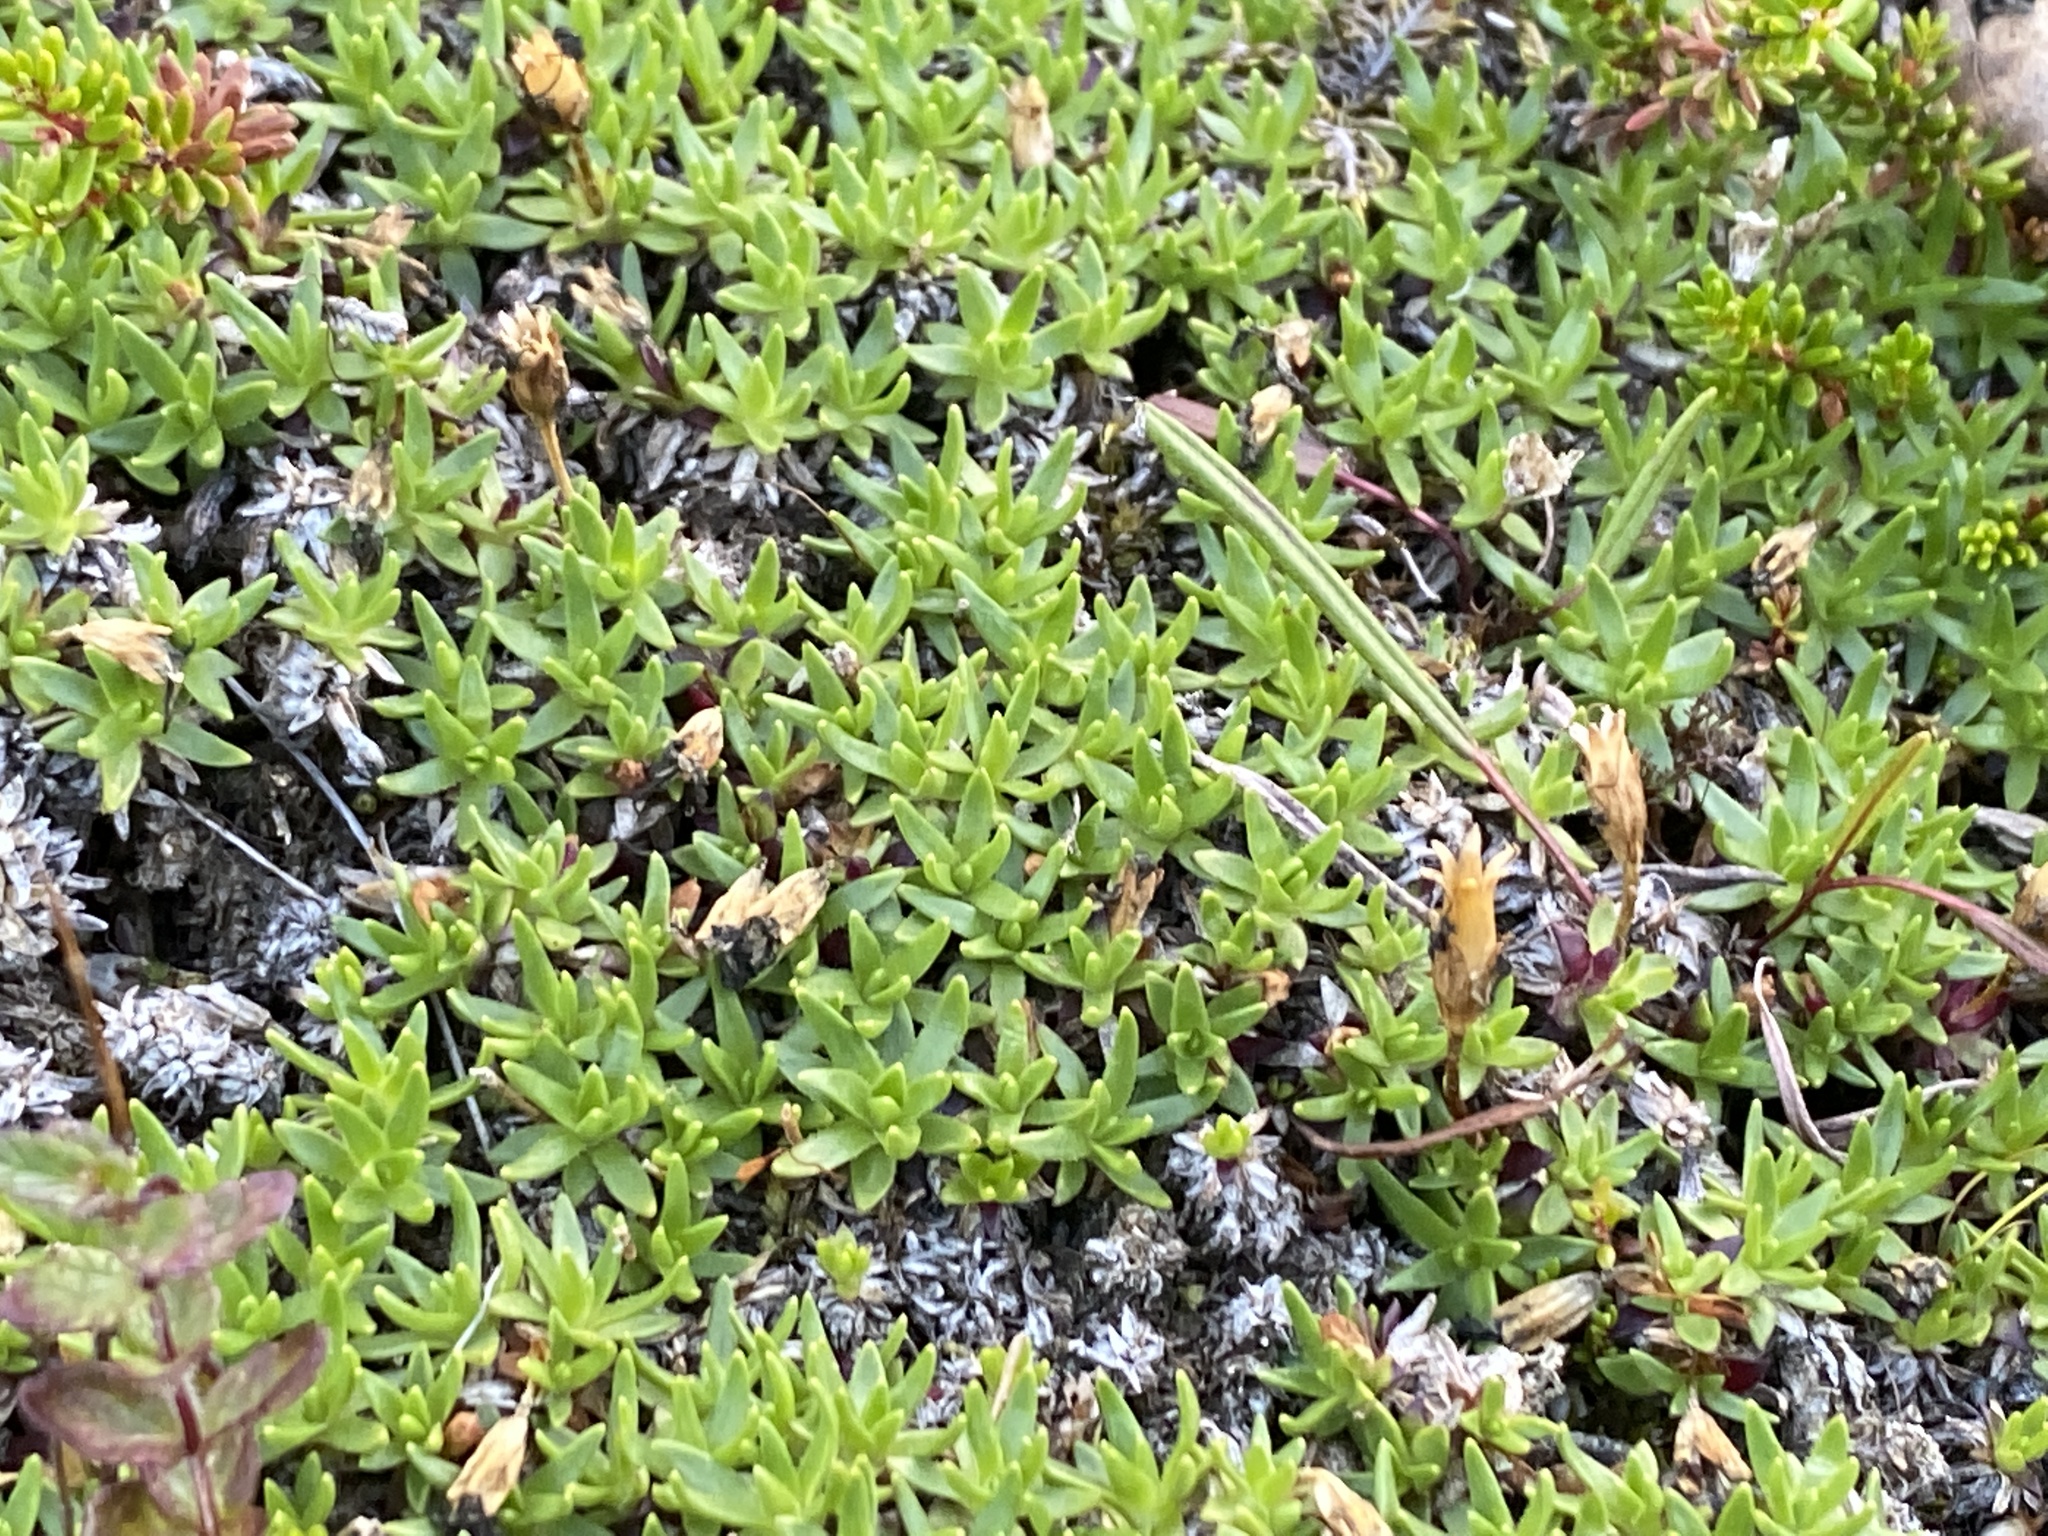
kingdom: Plantae
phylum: Tracheophyta
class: Magnoliopsida
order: Caryophyllales
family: Caryophyllaceae
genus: Silene
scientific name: Silene acaulis
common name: Moss campion
